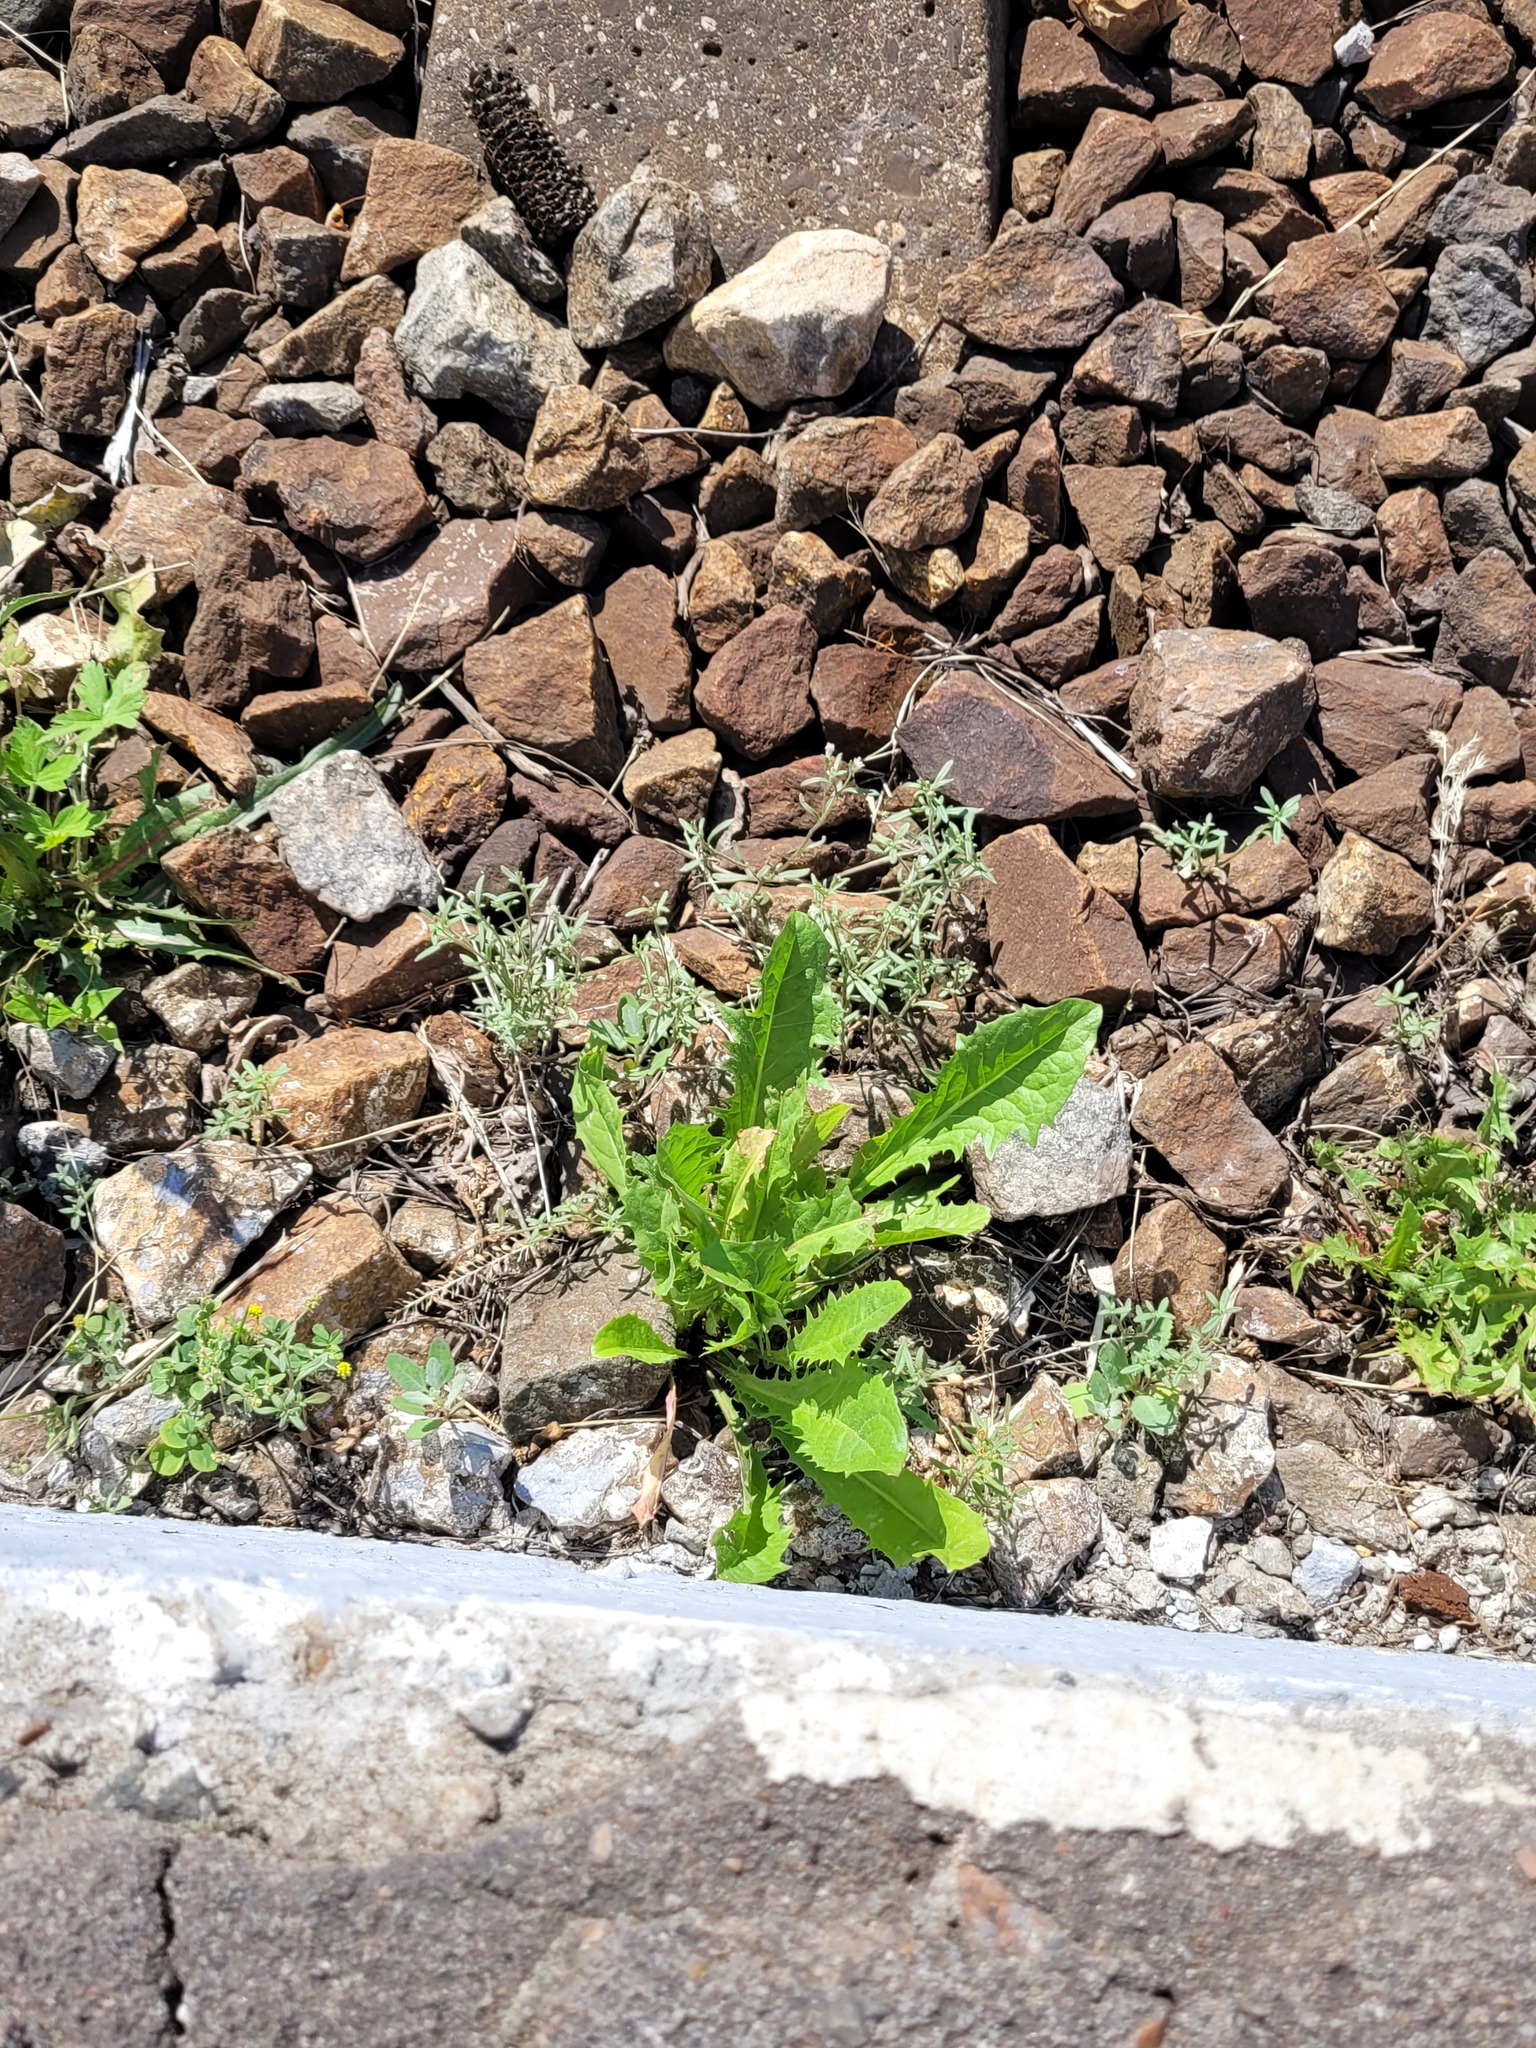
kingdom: Plantae
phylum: Tracheophyta
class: Magnoliopsida
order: Asterales
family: Asteraceae
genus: Taraxacum
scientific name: Taraxacum officinale
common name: Common dandelion
